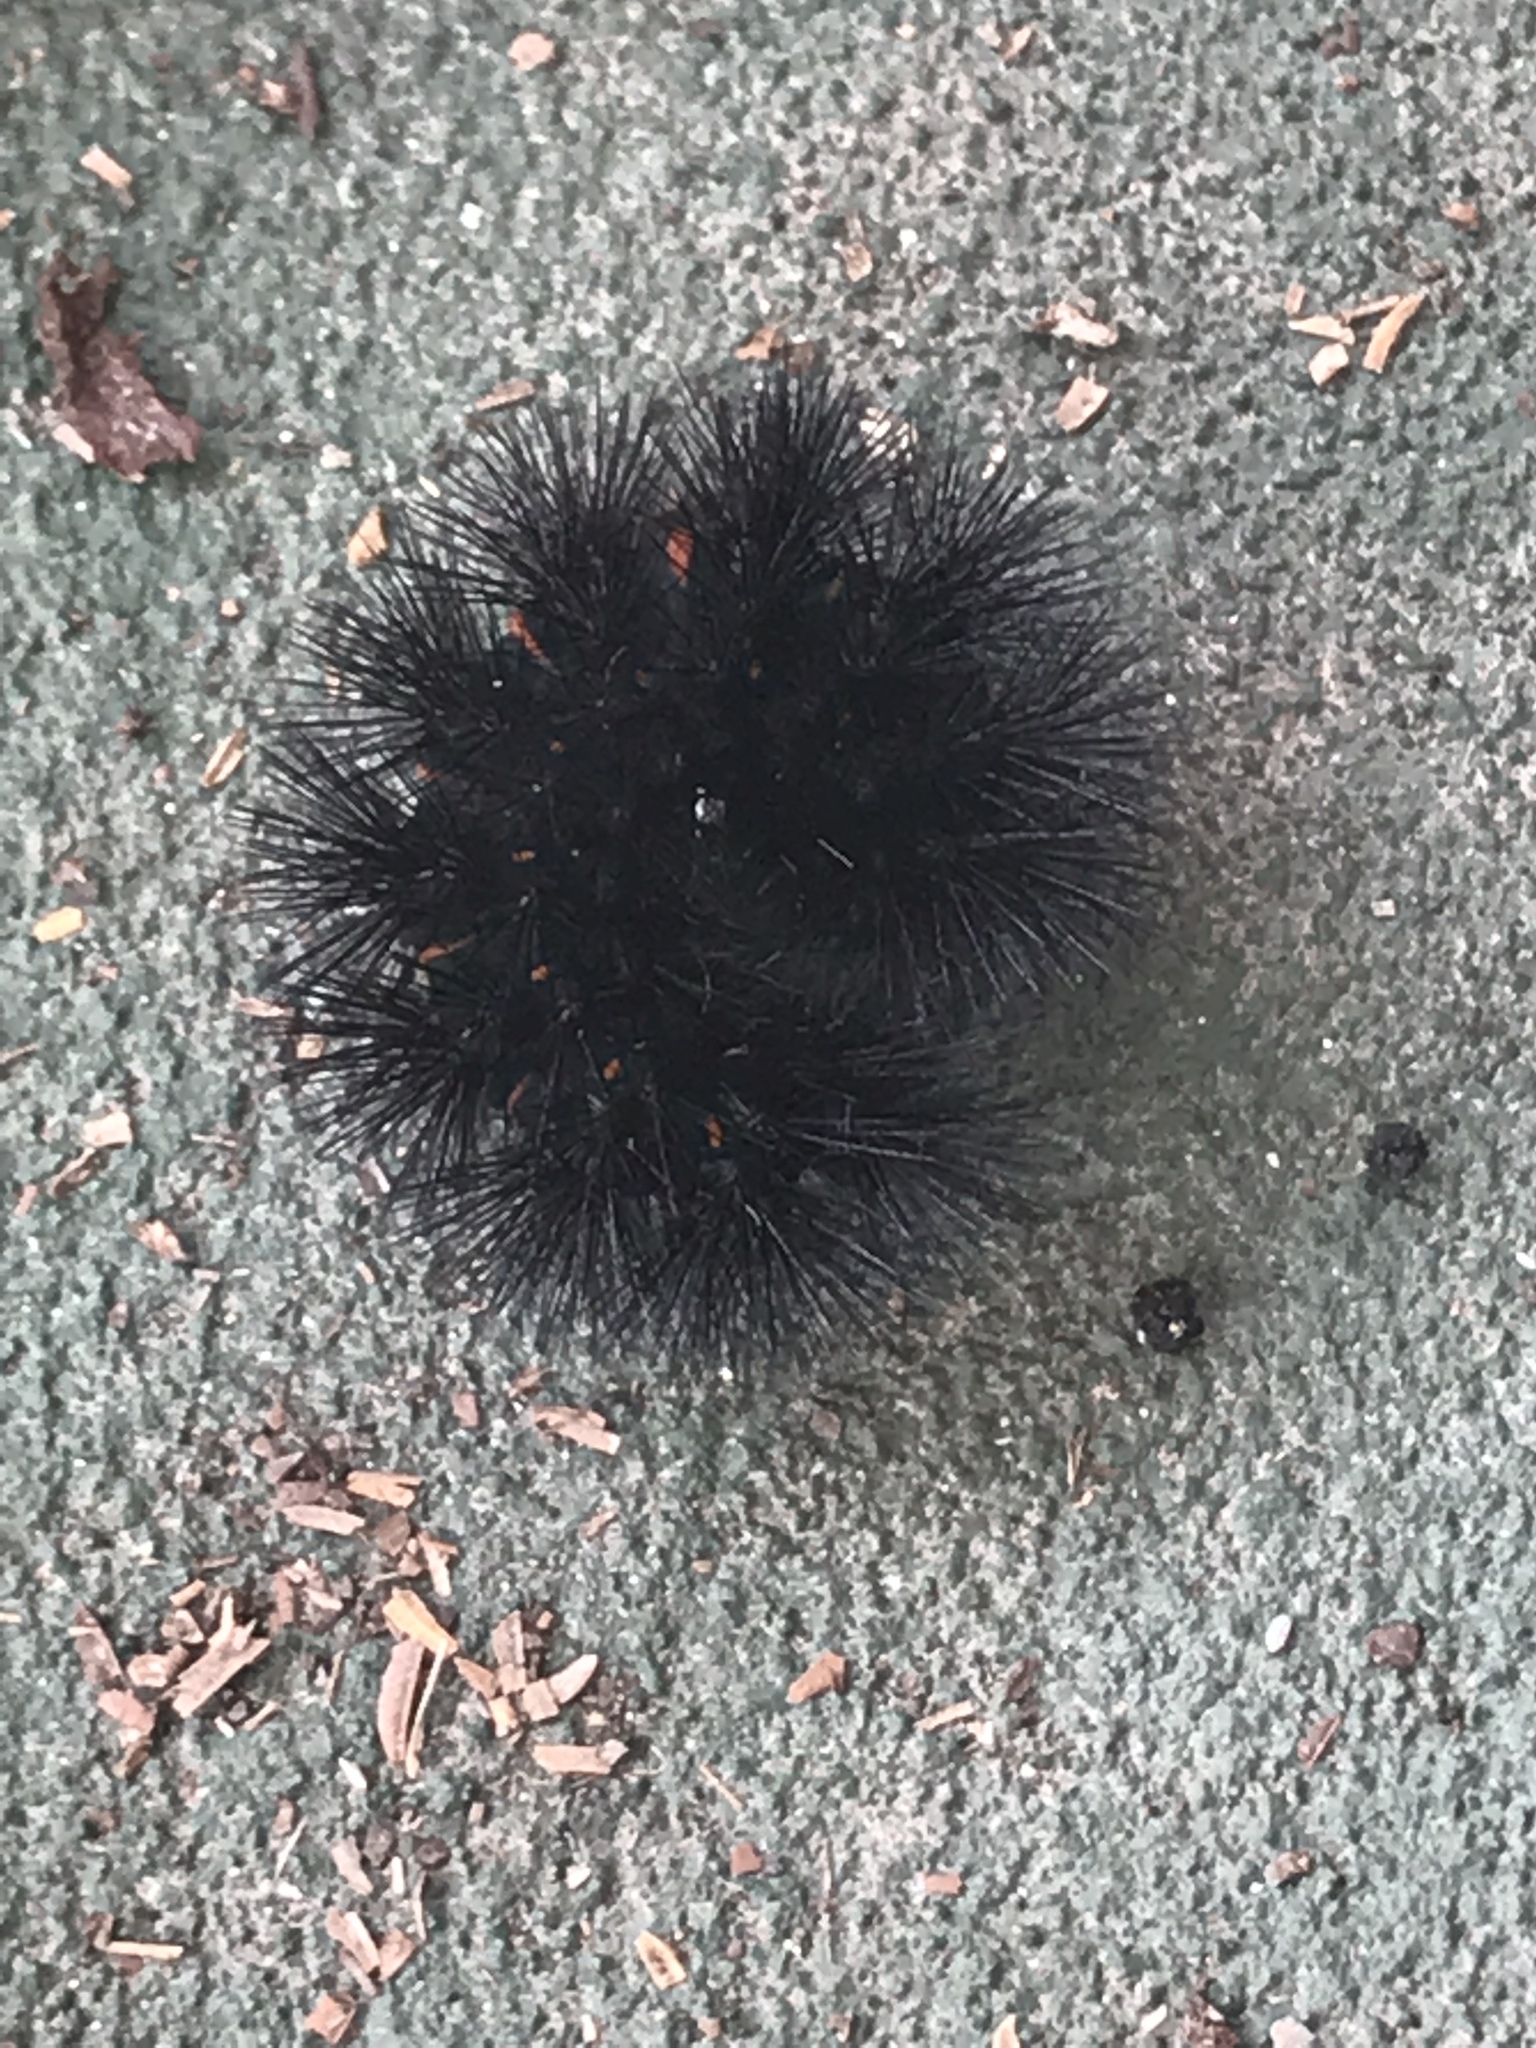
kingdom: Animalia
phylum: Arthropoda
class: Insecta
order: Lepidoptera
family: Erebidae
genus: Hypercompe
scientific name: Hypercompe scribonia
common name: Giant leopard moth
